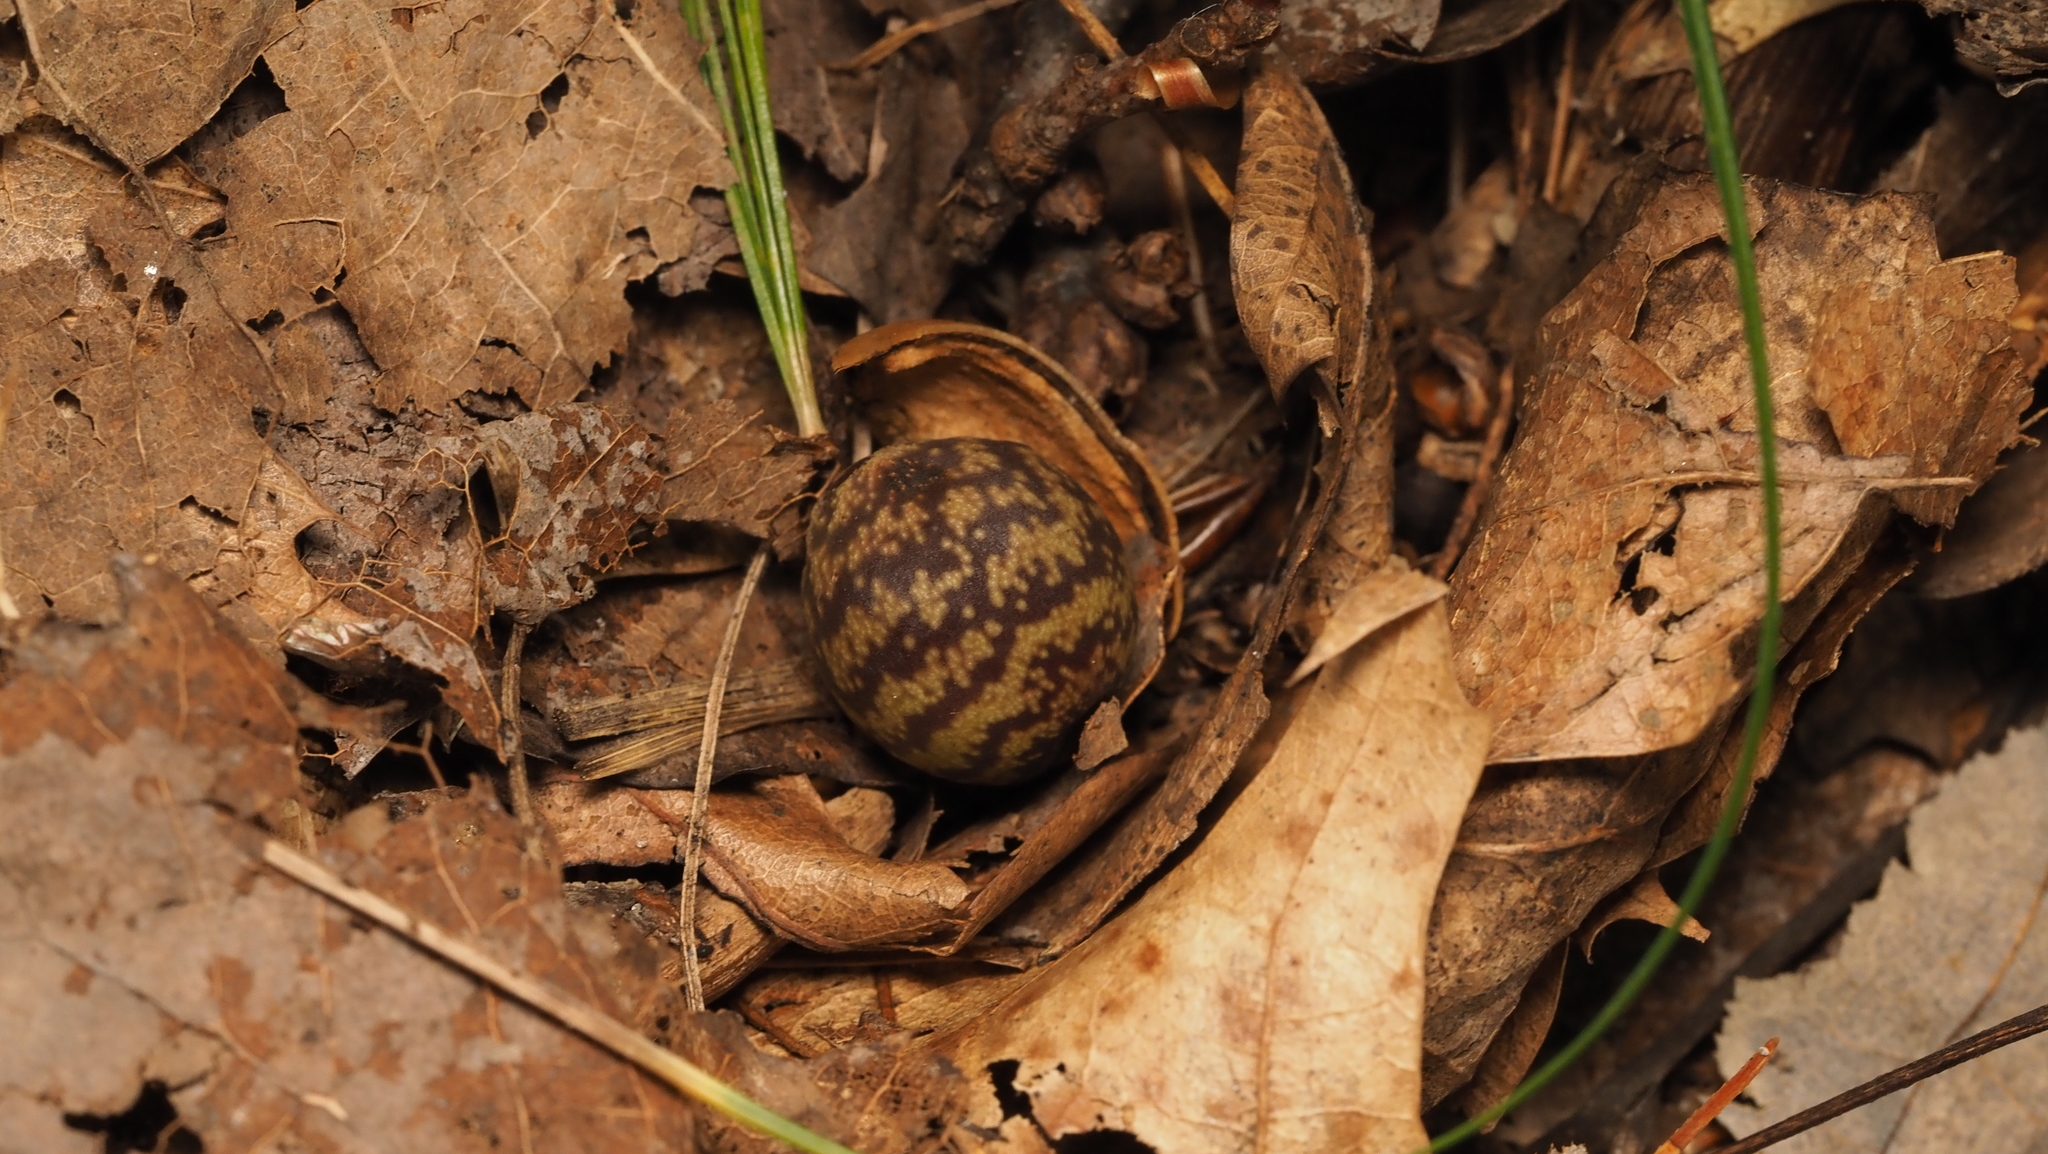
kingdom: Animalia
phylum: Arthropoda
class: Insecta
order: Hymenoptera
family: Cynipidae
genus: Kokkocynips
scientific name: Kokkocynips imbricariae
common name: Banded bullet gall wasp
